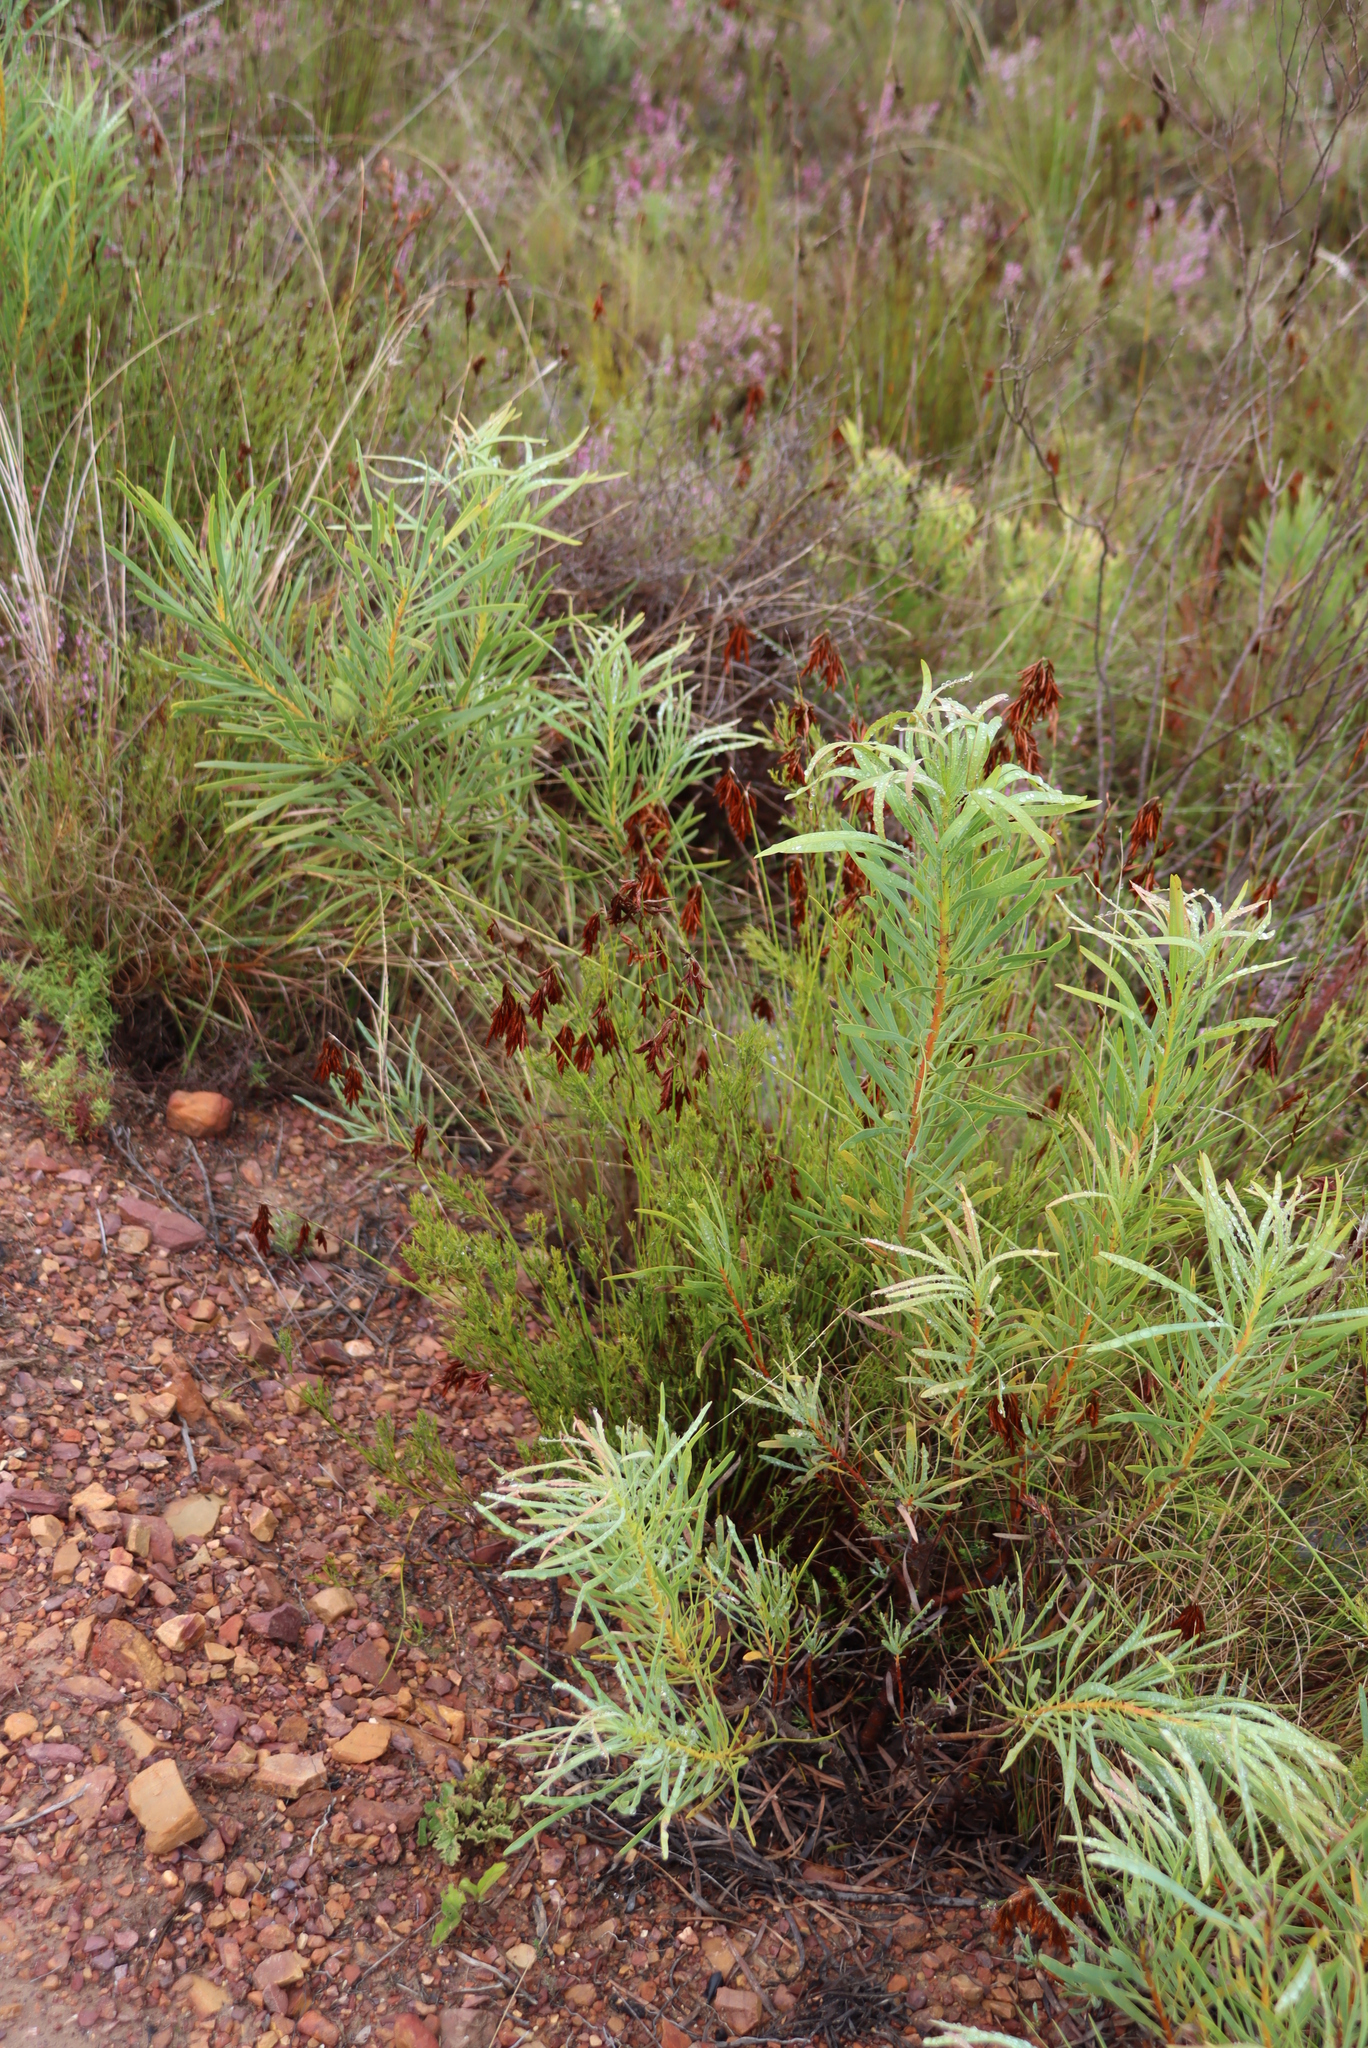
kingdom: Plantae
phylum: Tracheophyta
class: Magnoliopsida
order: Proteales
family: Proteaceae
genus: Protea
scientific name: Protea repens
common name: Sugarbush
